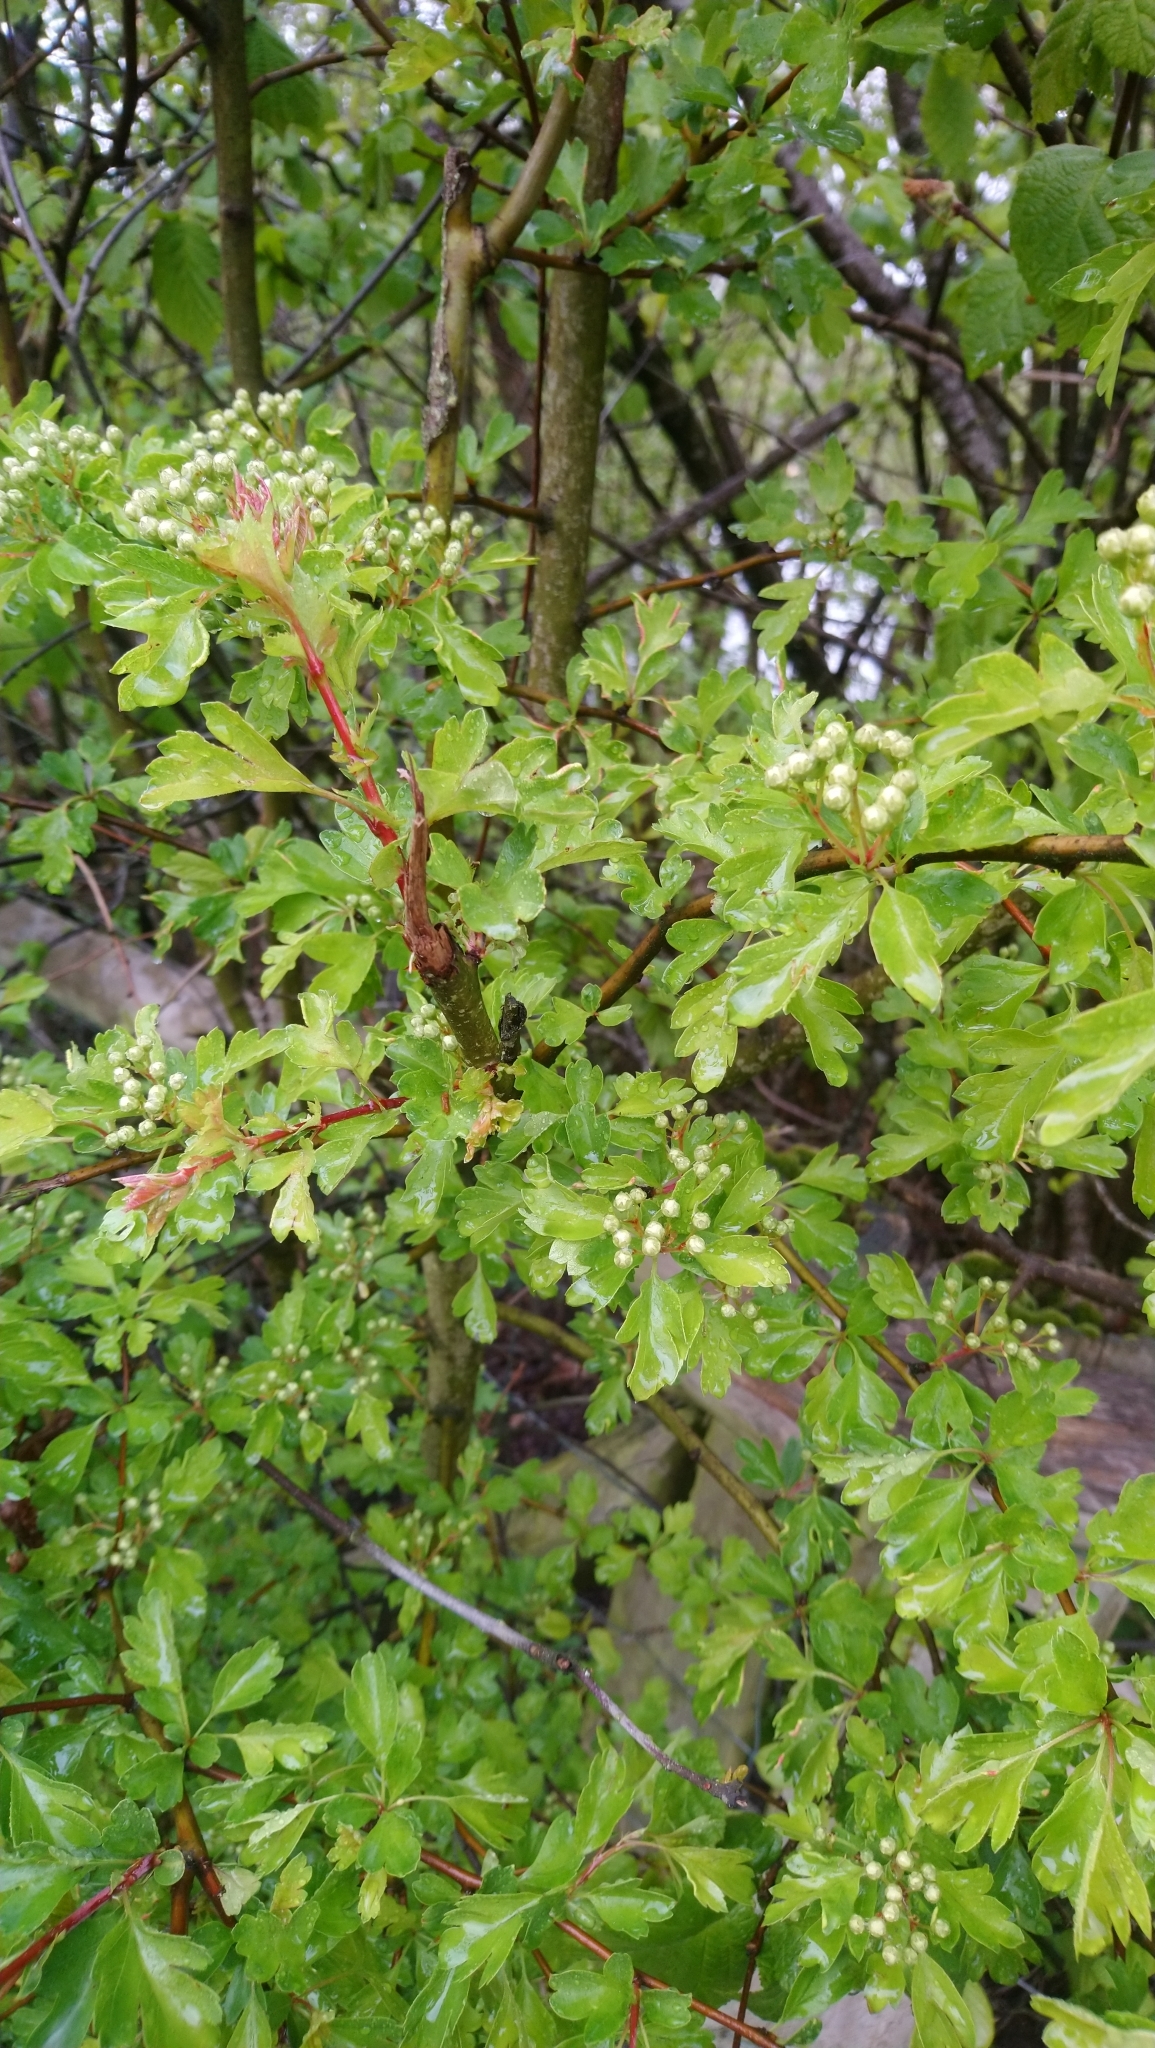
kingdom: Plantae
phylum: Tracheophyta
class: Magnoliopsida
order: Rosales
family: Rosaceae
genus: Crataegus
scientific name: Crataegus monogyna
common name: Hawthorn
